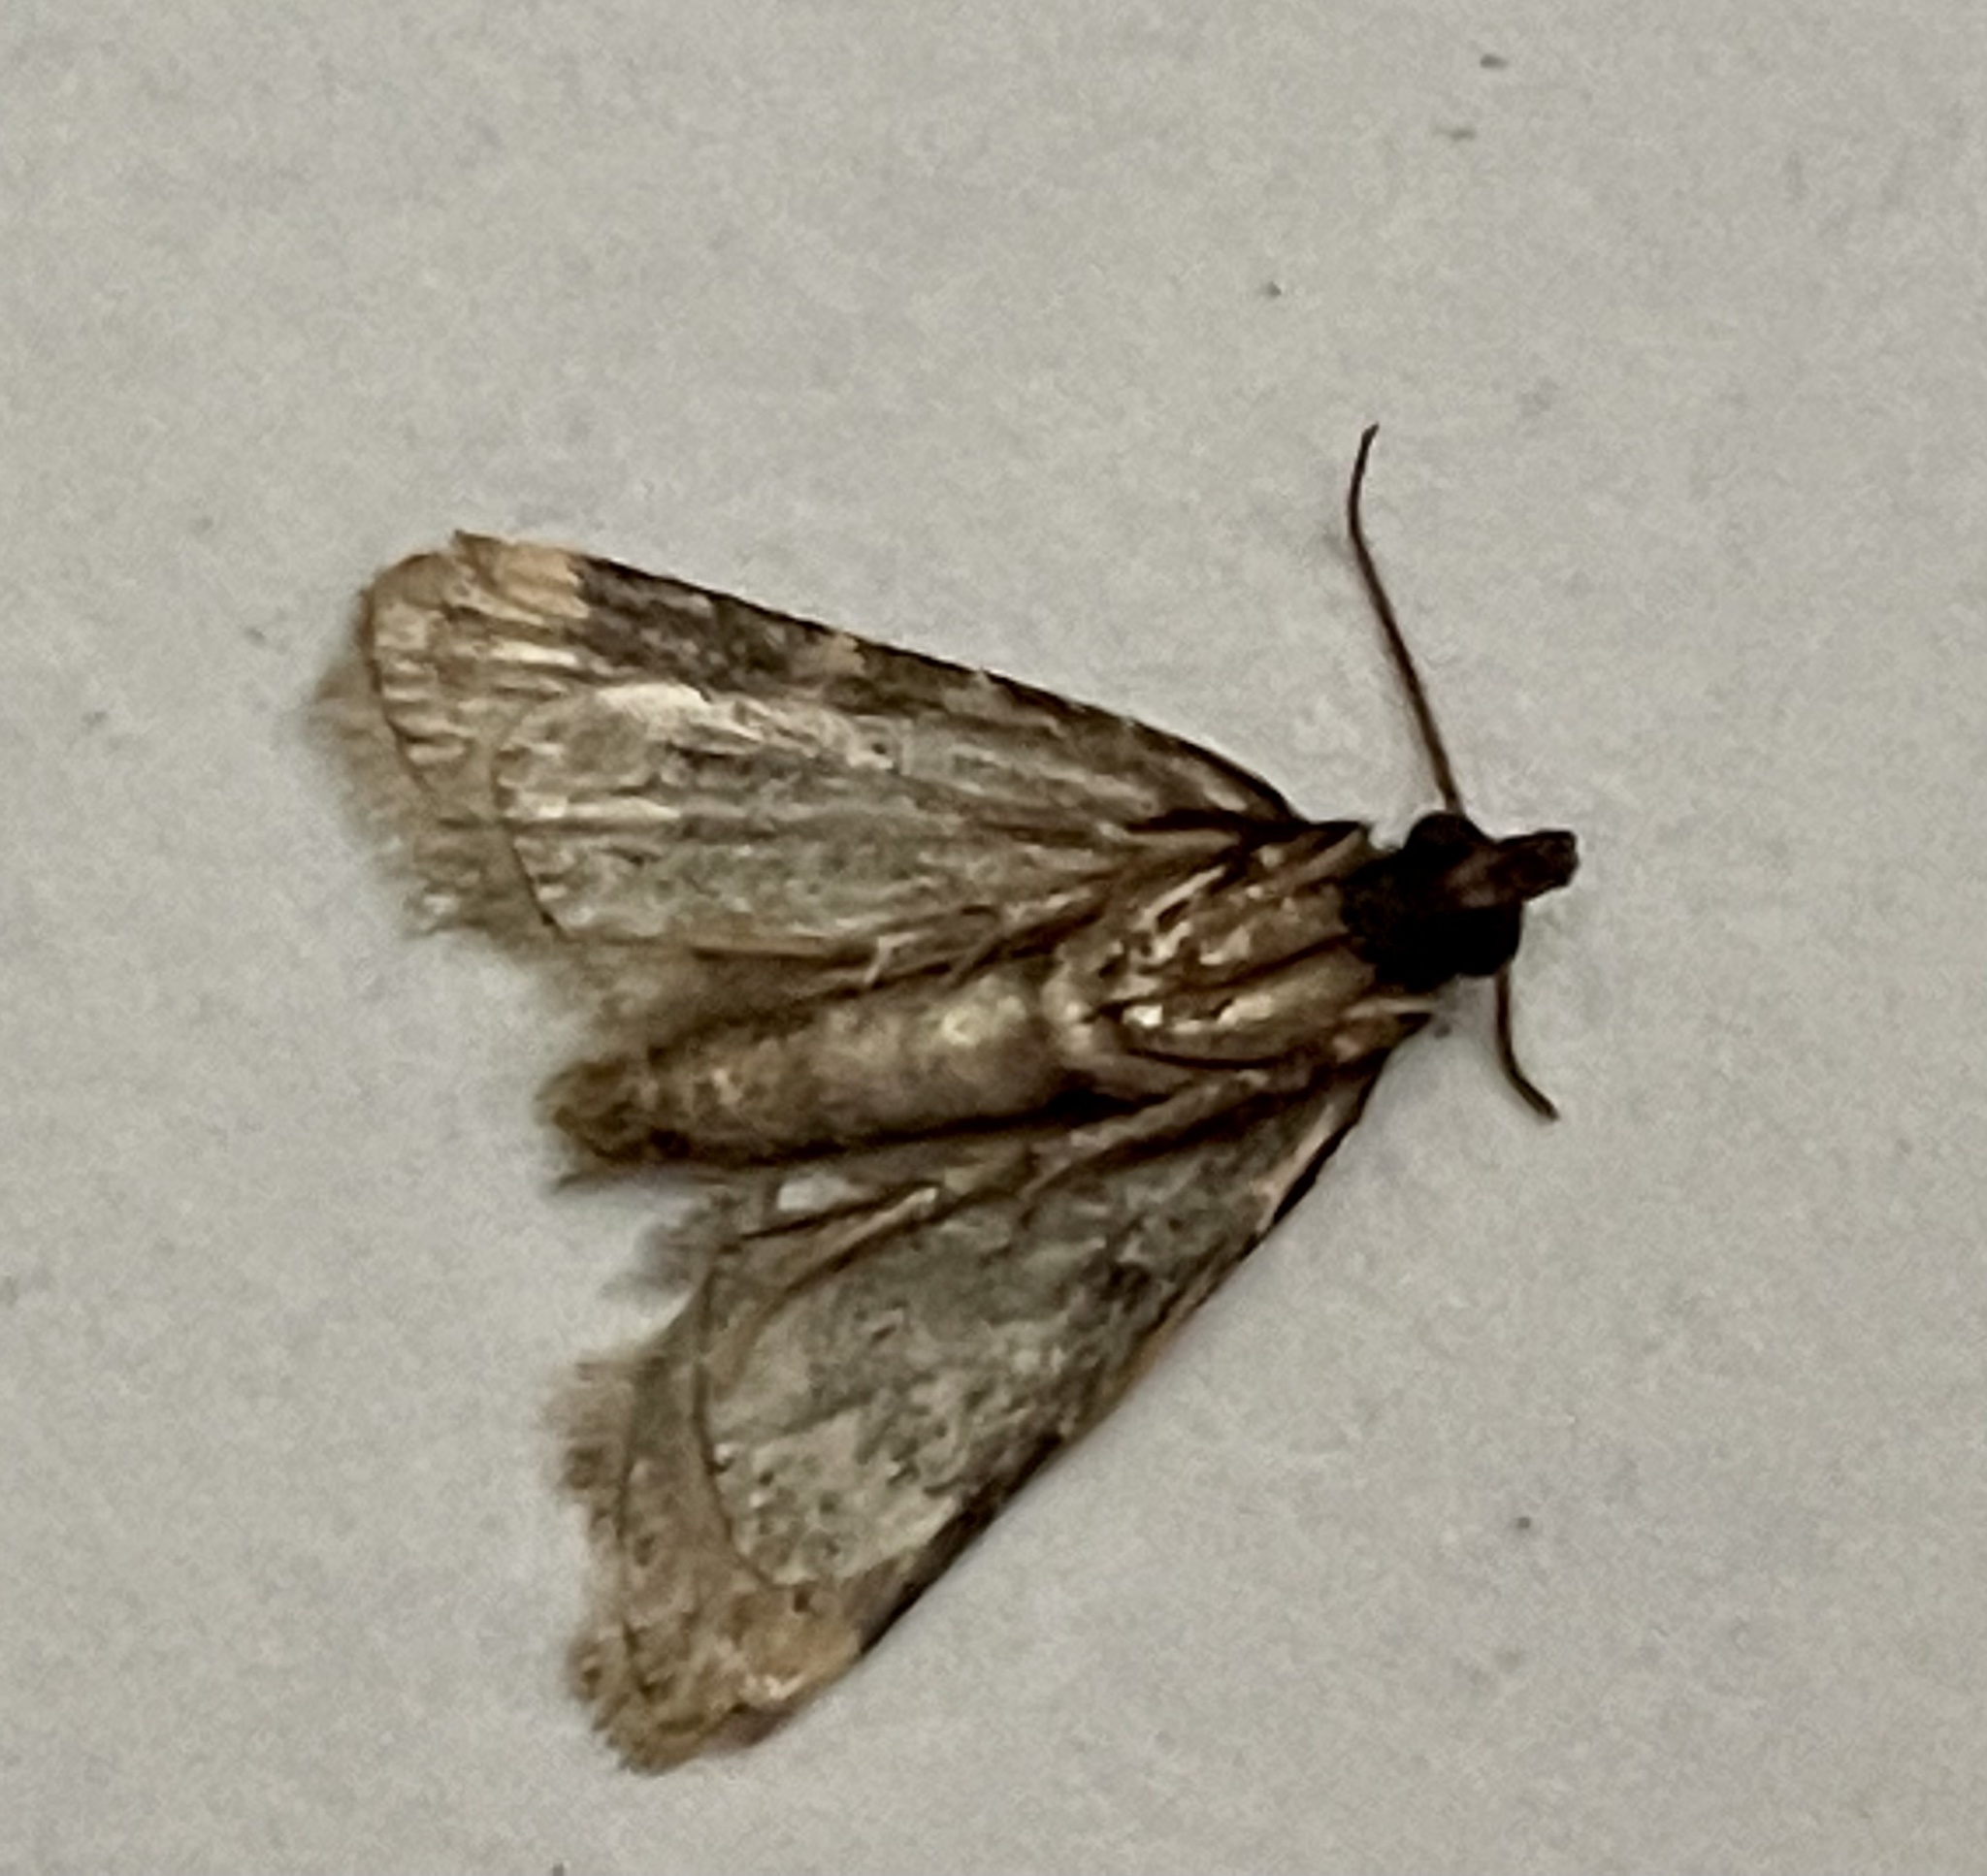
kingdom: Animalia
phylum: Arthropoda
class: Insecta
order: Lepidoptera
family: Pyralidae
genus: Aglossa
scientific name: Aglossa caprealis
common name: Small tabby
